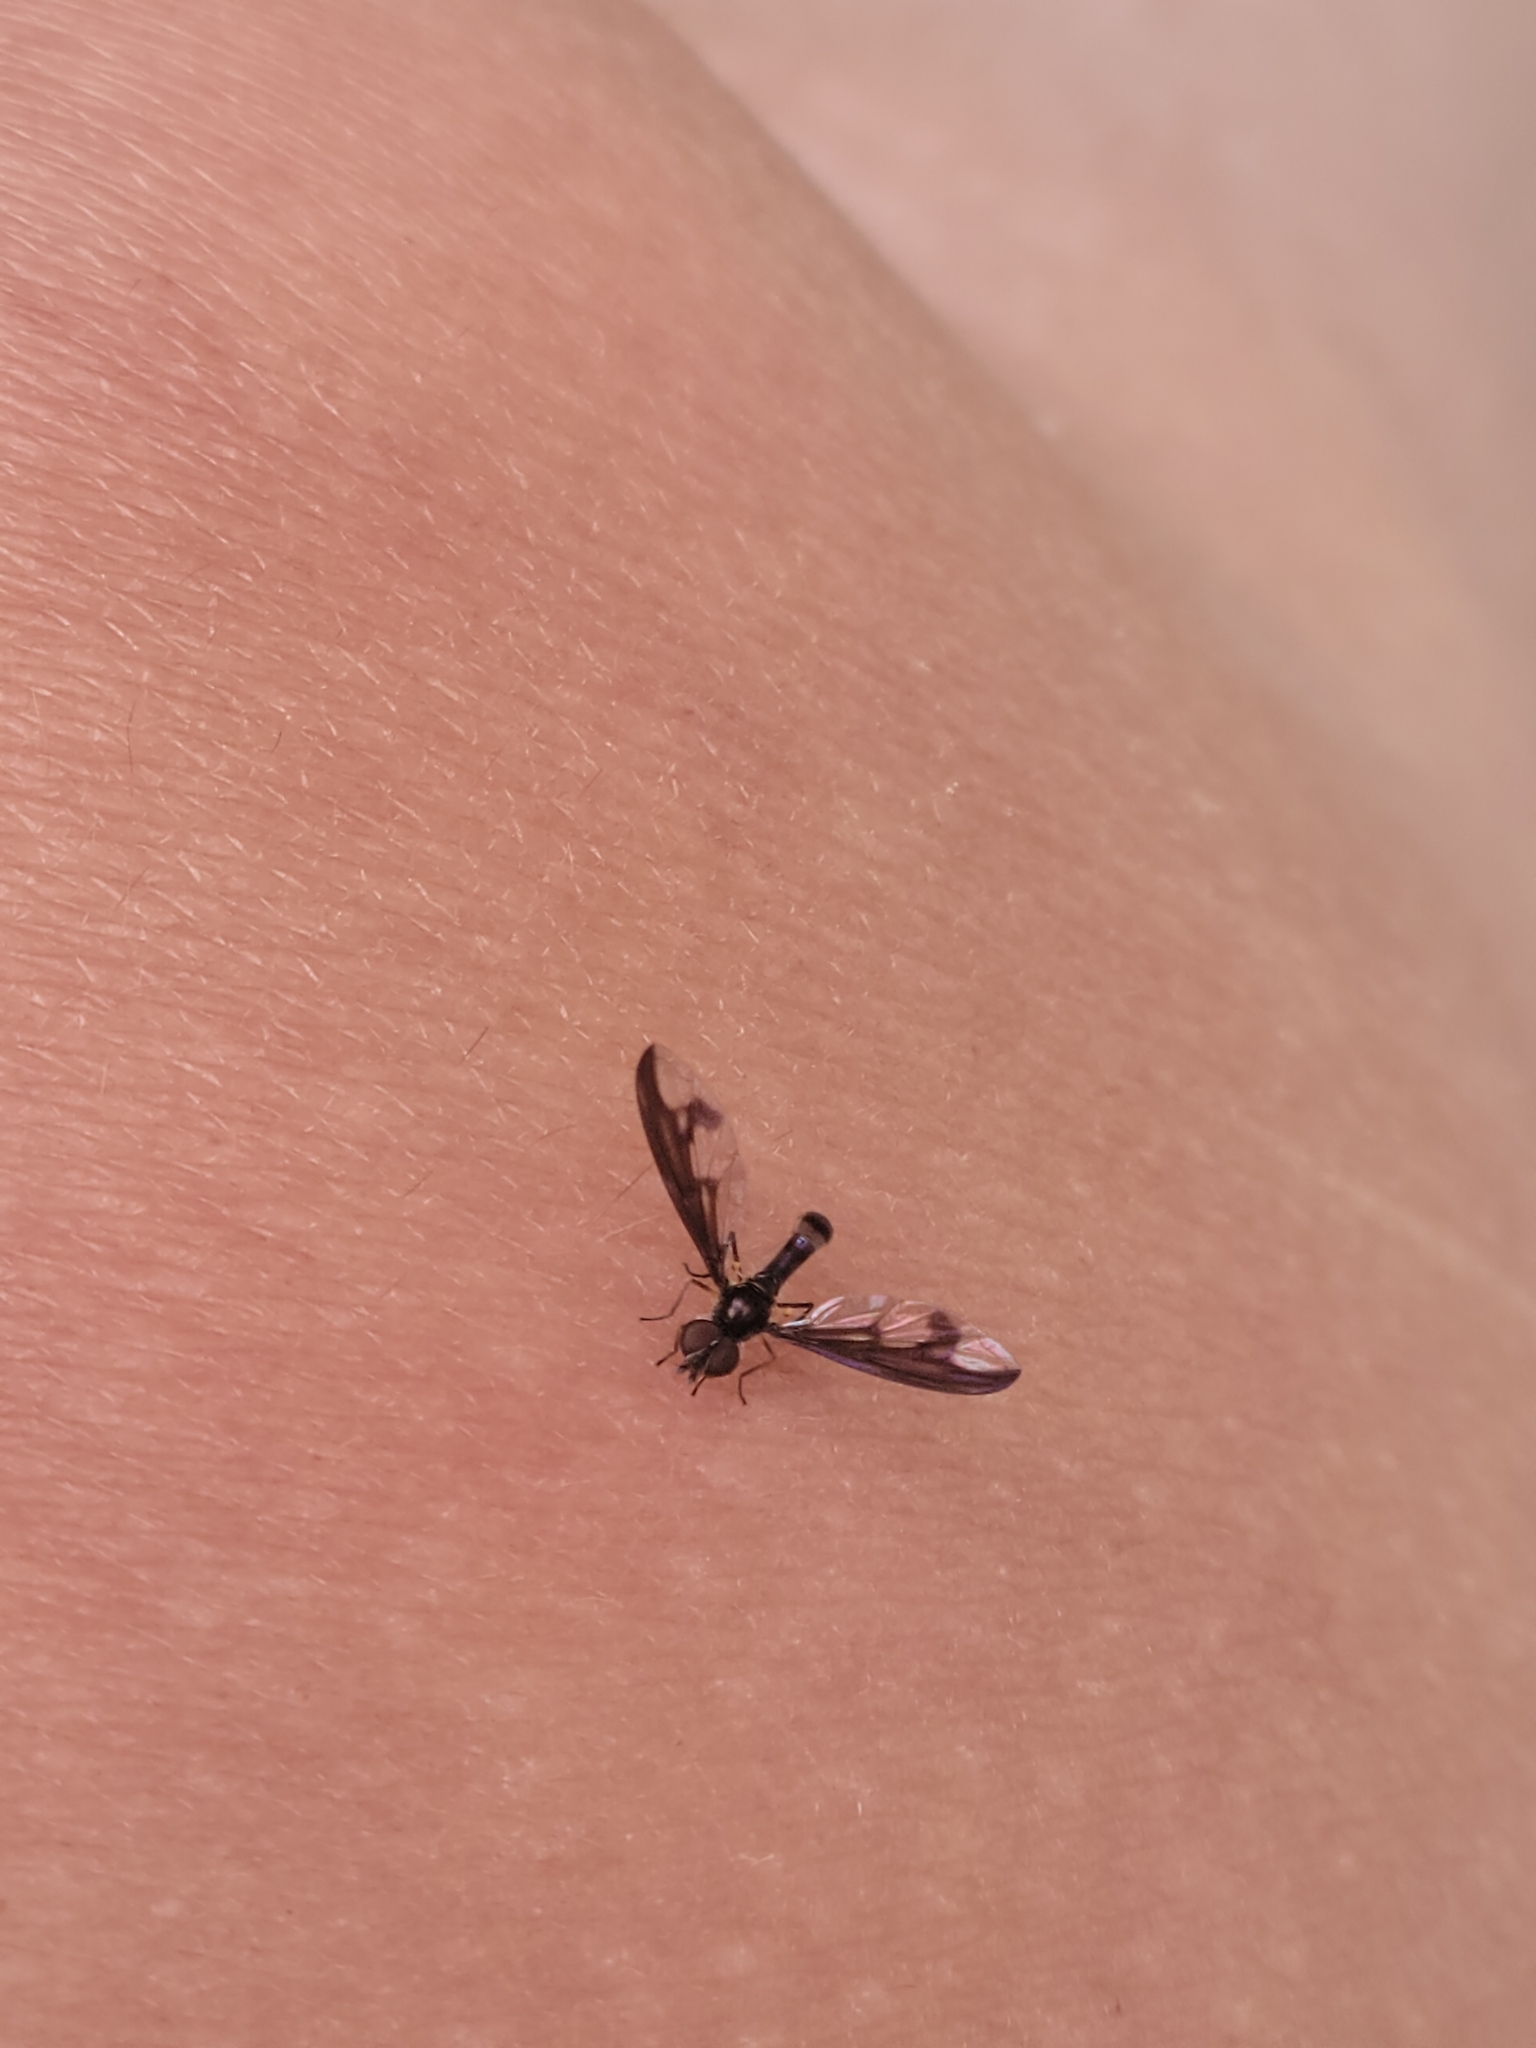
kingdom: Animalia
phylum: Arthropoda
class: Insecta
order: Diptera
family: Syrphidae
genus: Ocyptamus
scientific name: Ocyptamus fuscipennis
